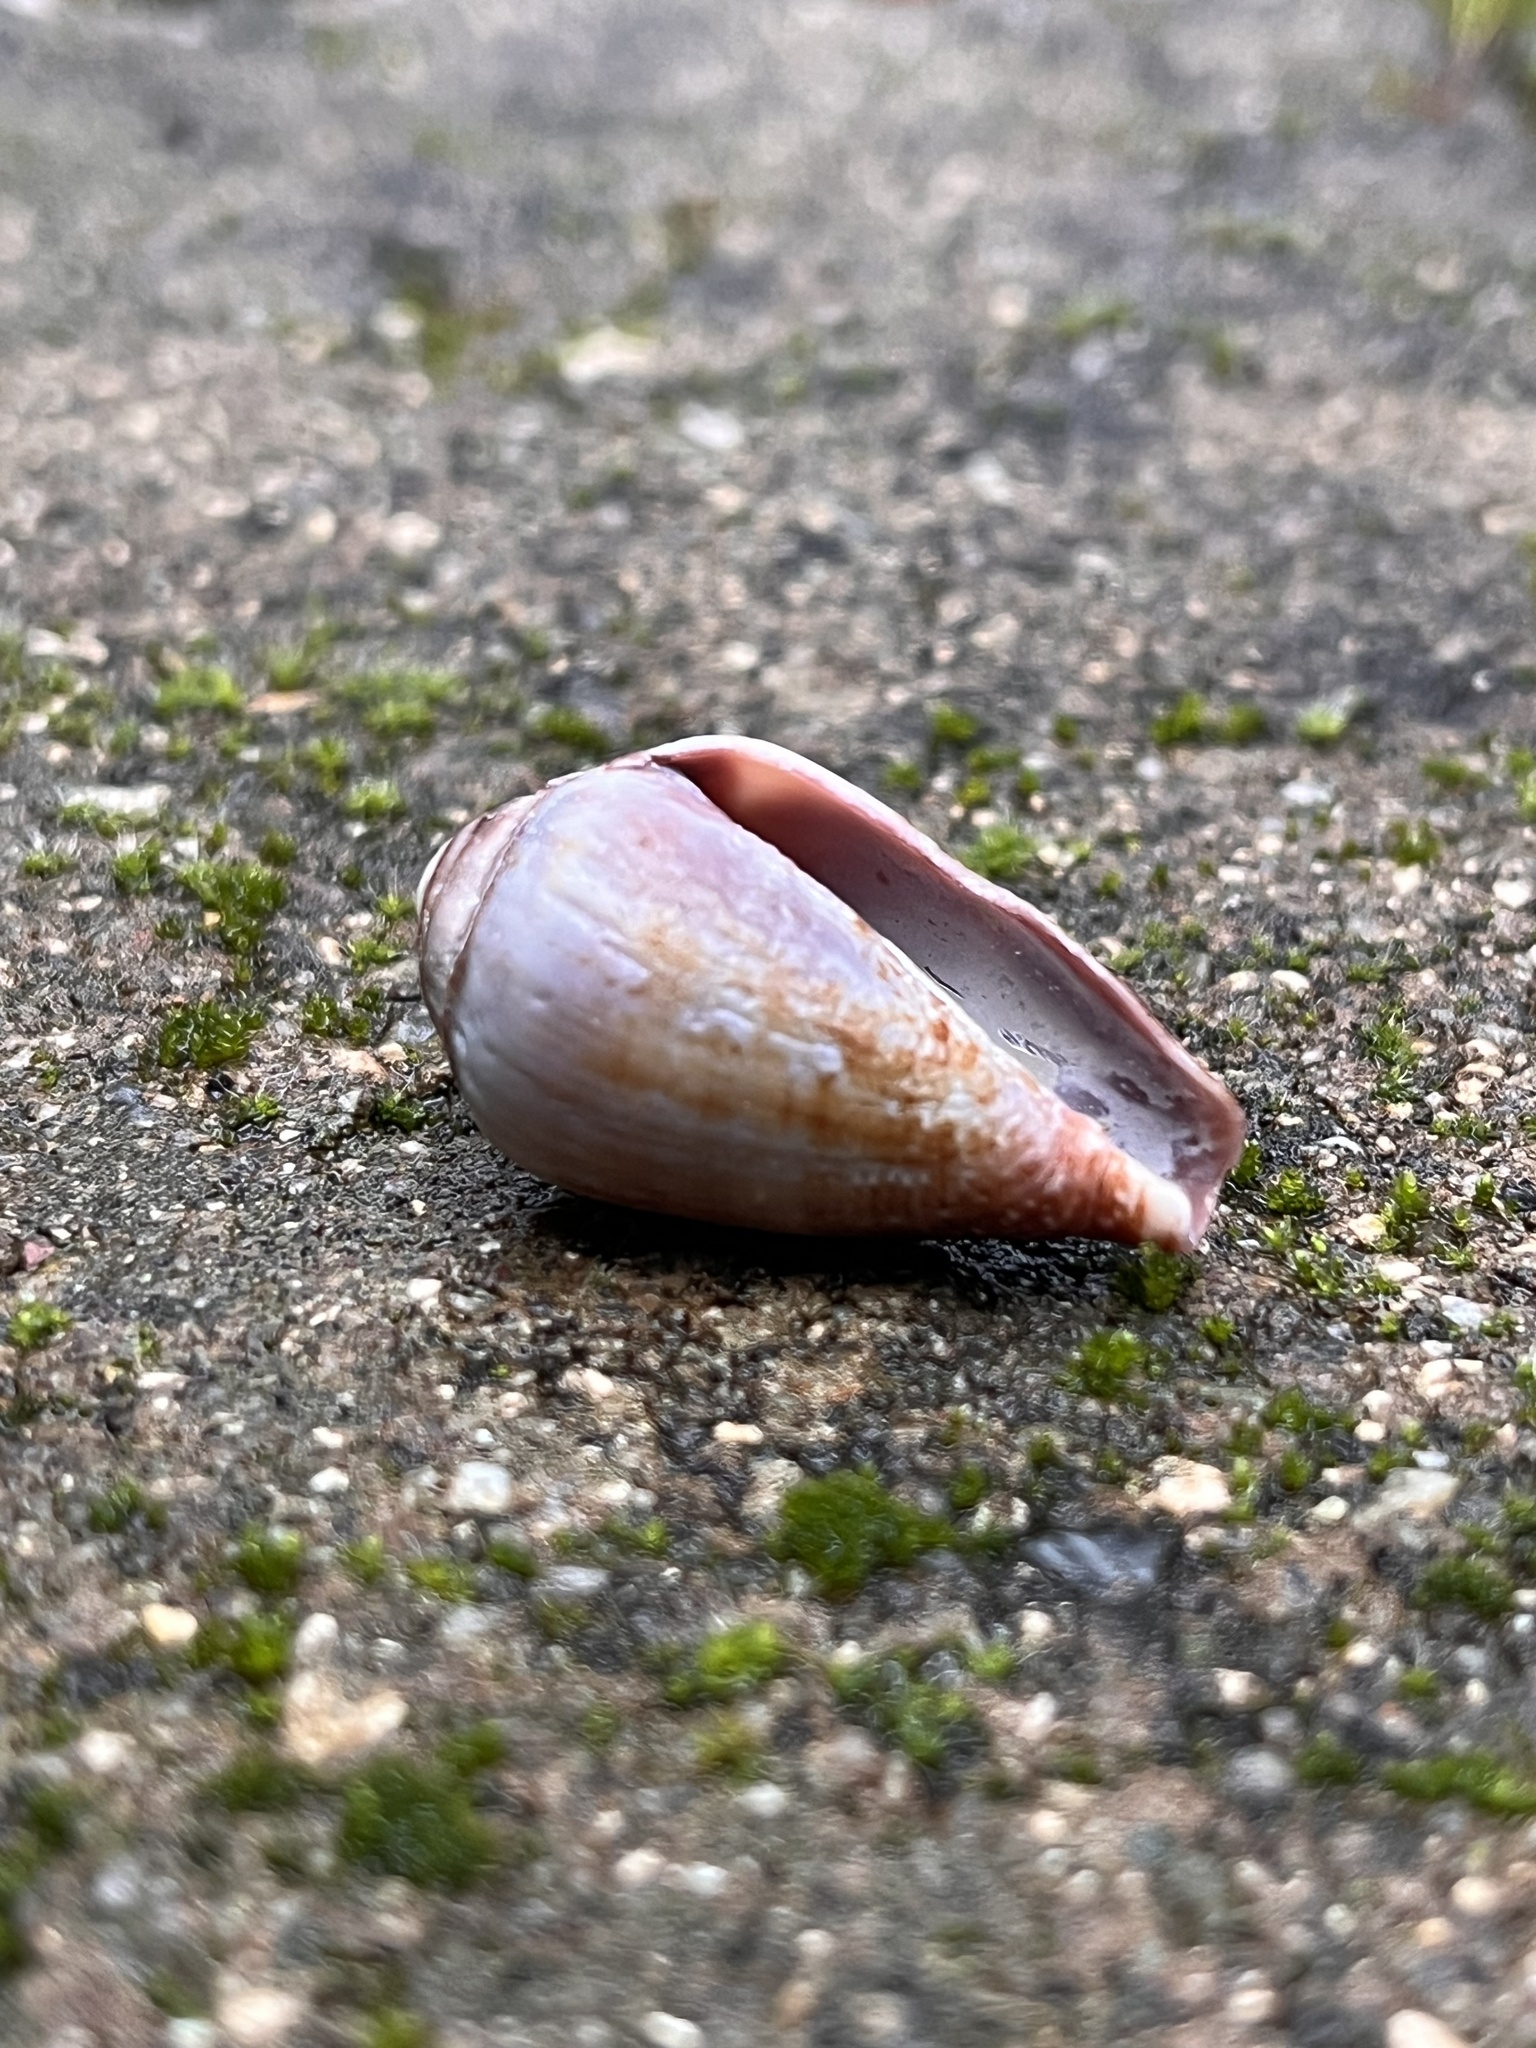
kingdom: Animalia
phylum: Mollusca
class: Gastropoda
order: Neogastropoda
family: Conidae
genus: Californiconus
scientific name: Californiconus californicus
